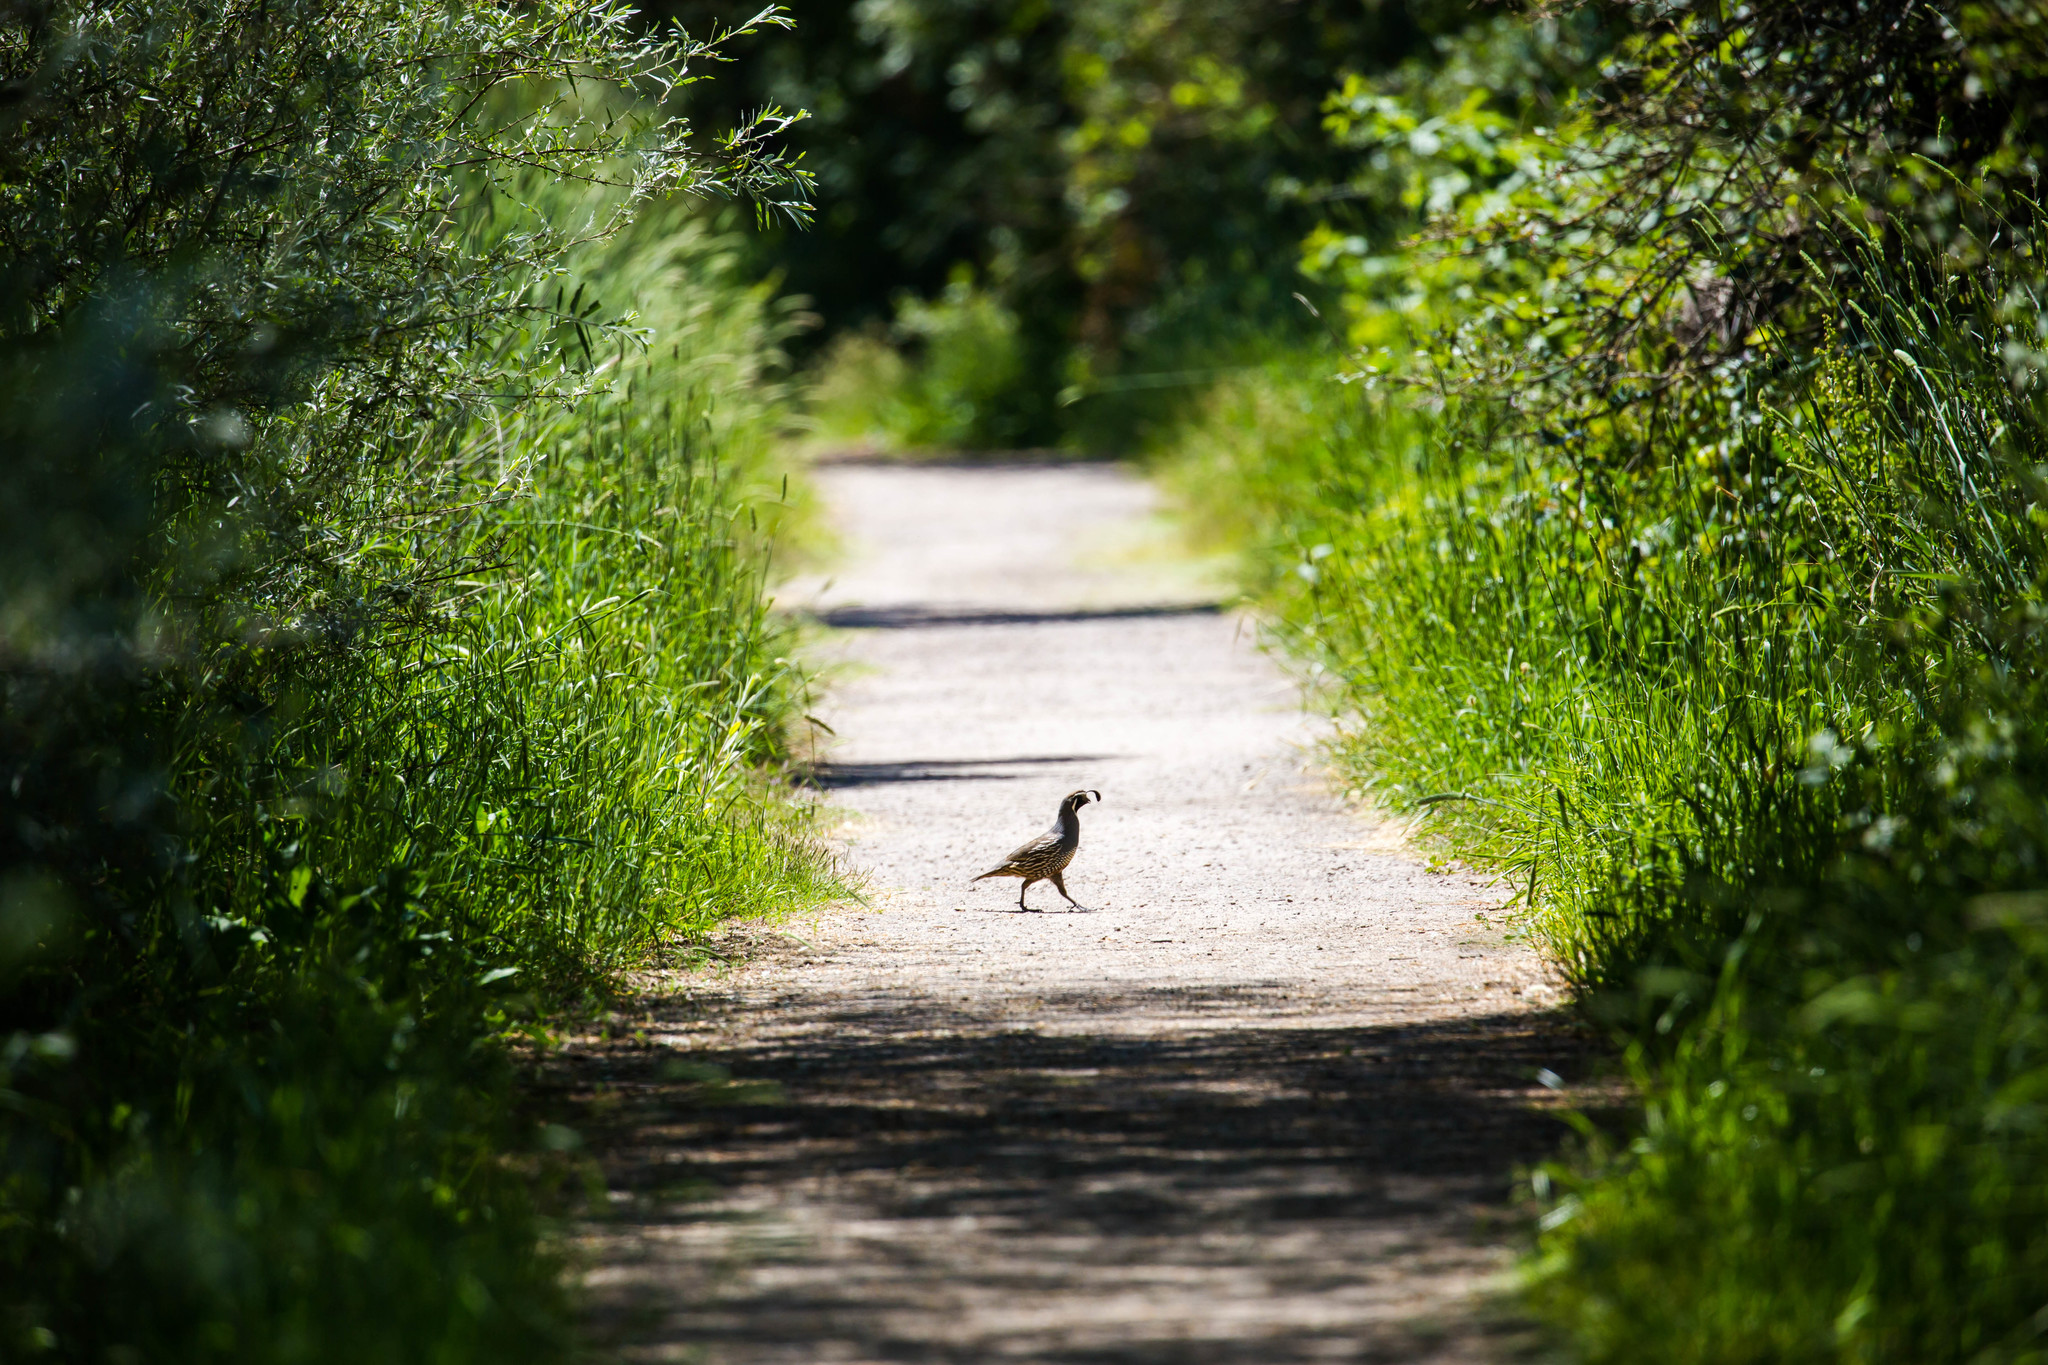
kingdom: Animalia
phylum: Chordata
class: Aves
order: Galliformes
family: Odontophoridae
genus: Callipepla
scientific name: Callipepla californica
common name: California quail
